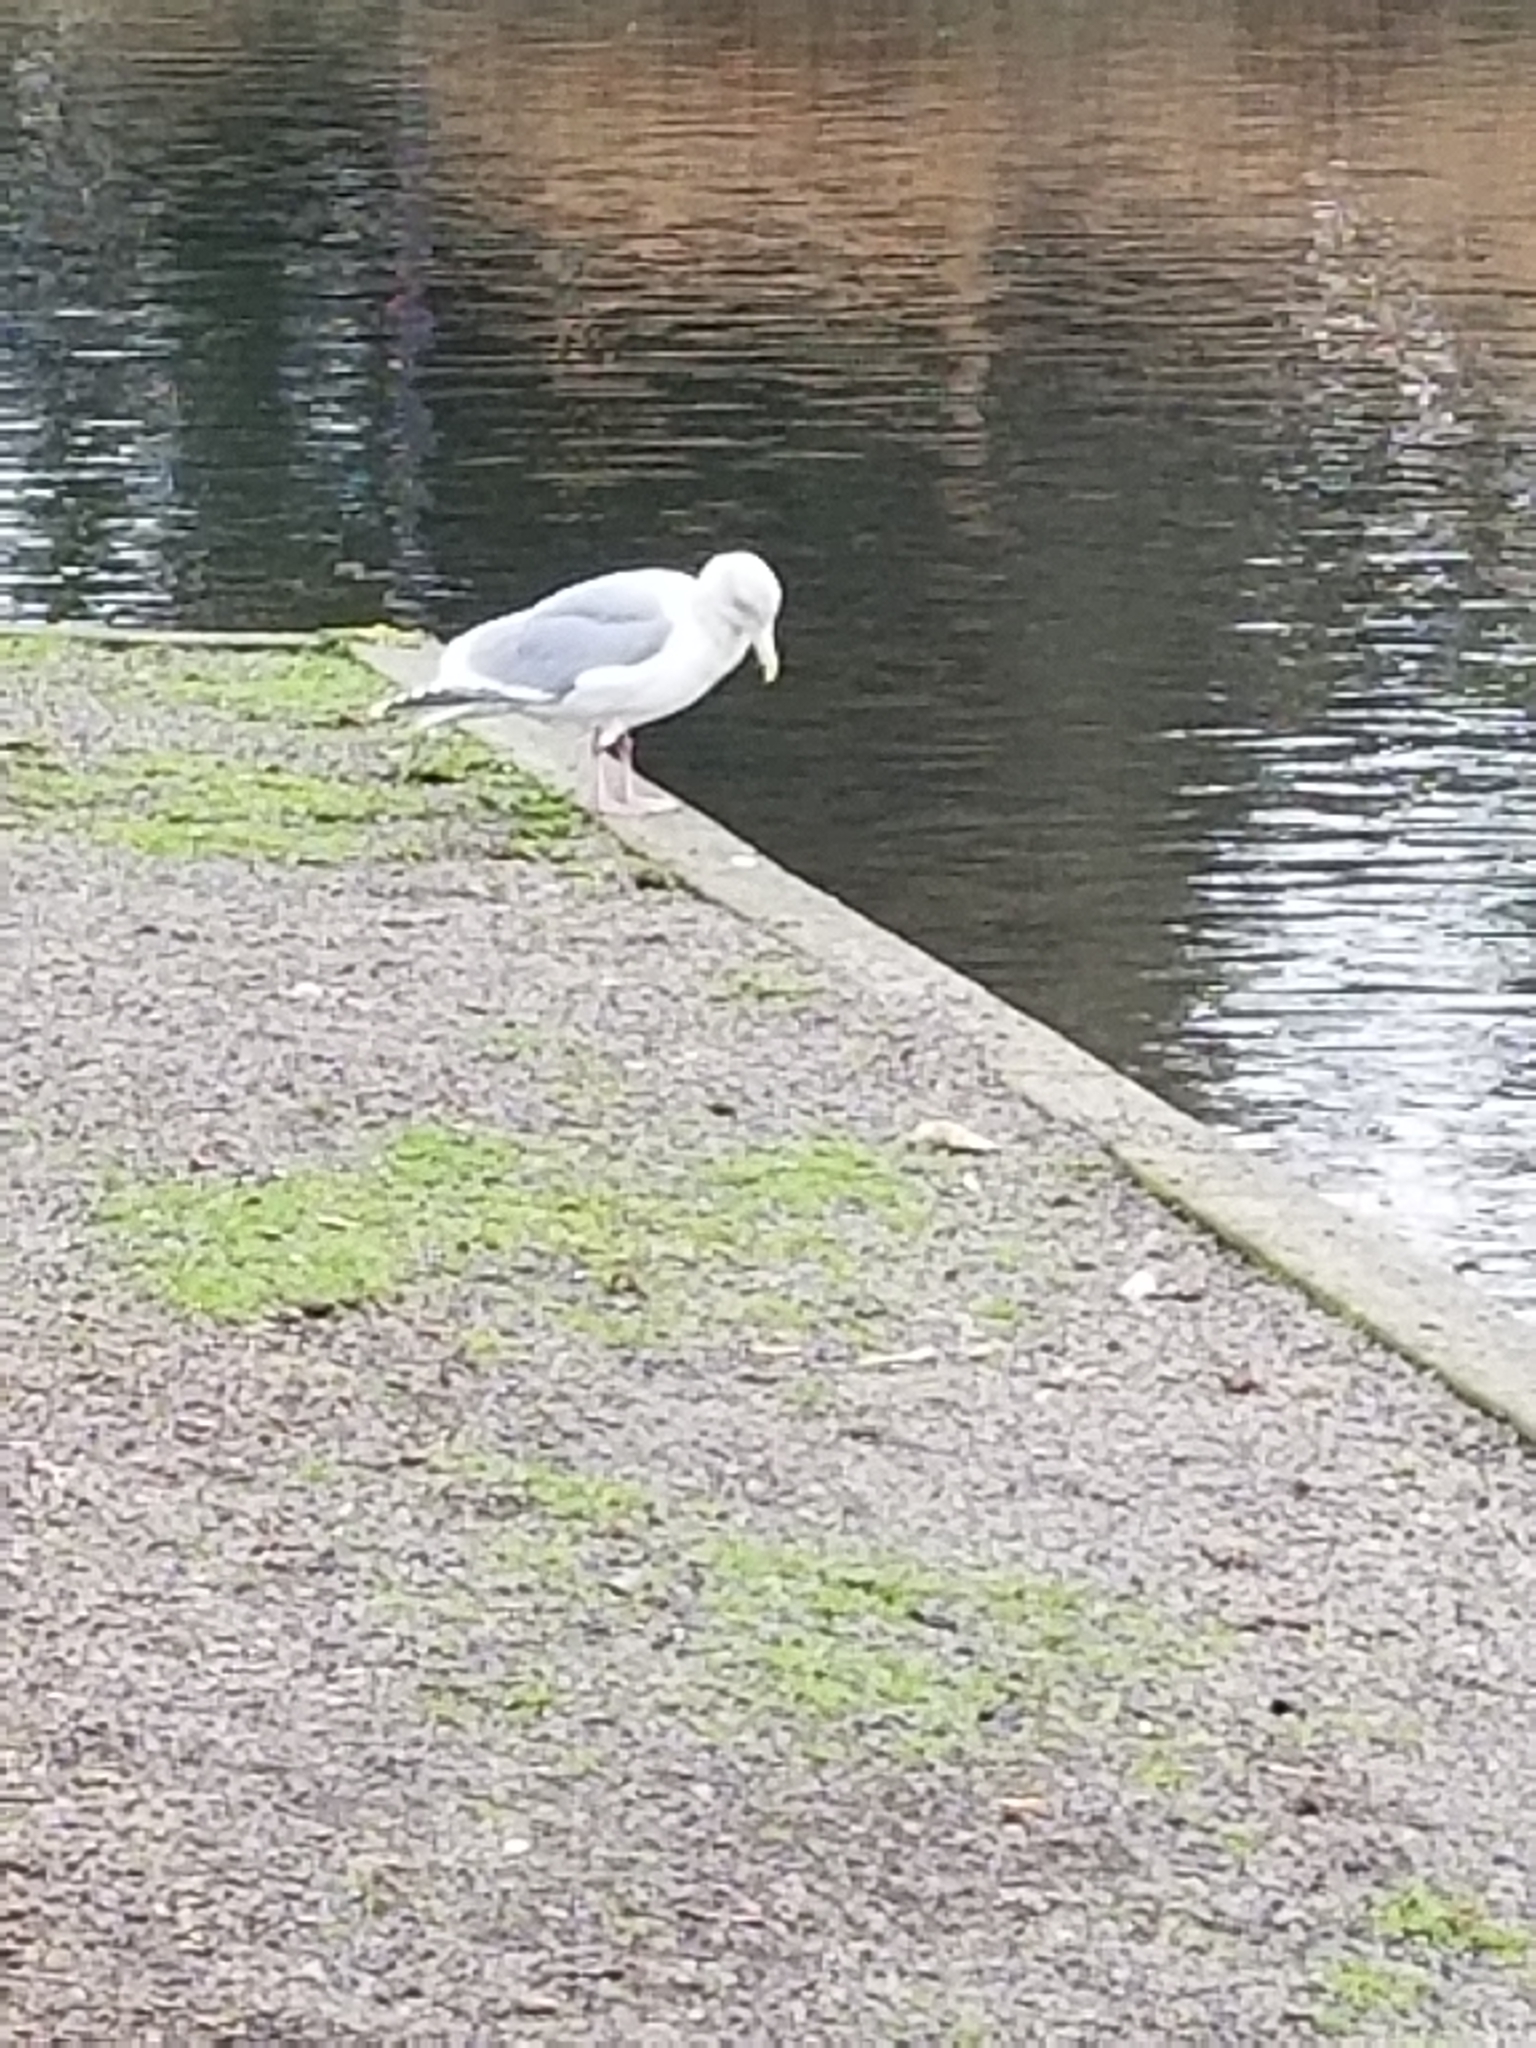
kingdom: Animalia
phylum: Chordata
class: Aves
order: Charadriiformes
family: Laridae
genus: Larus
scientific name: Larus
